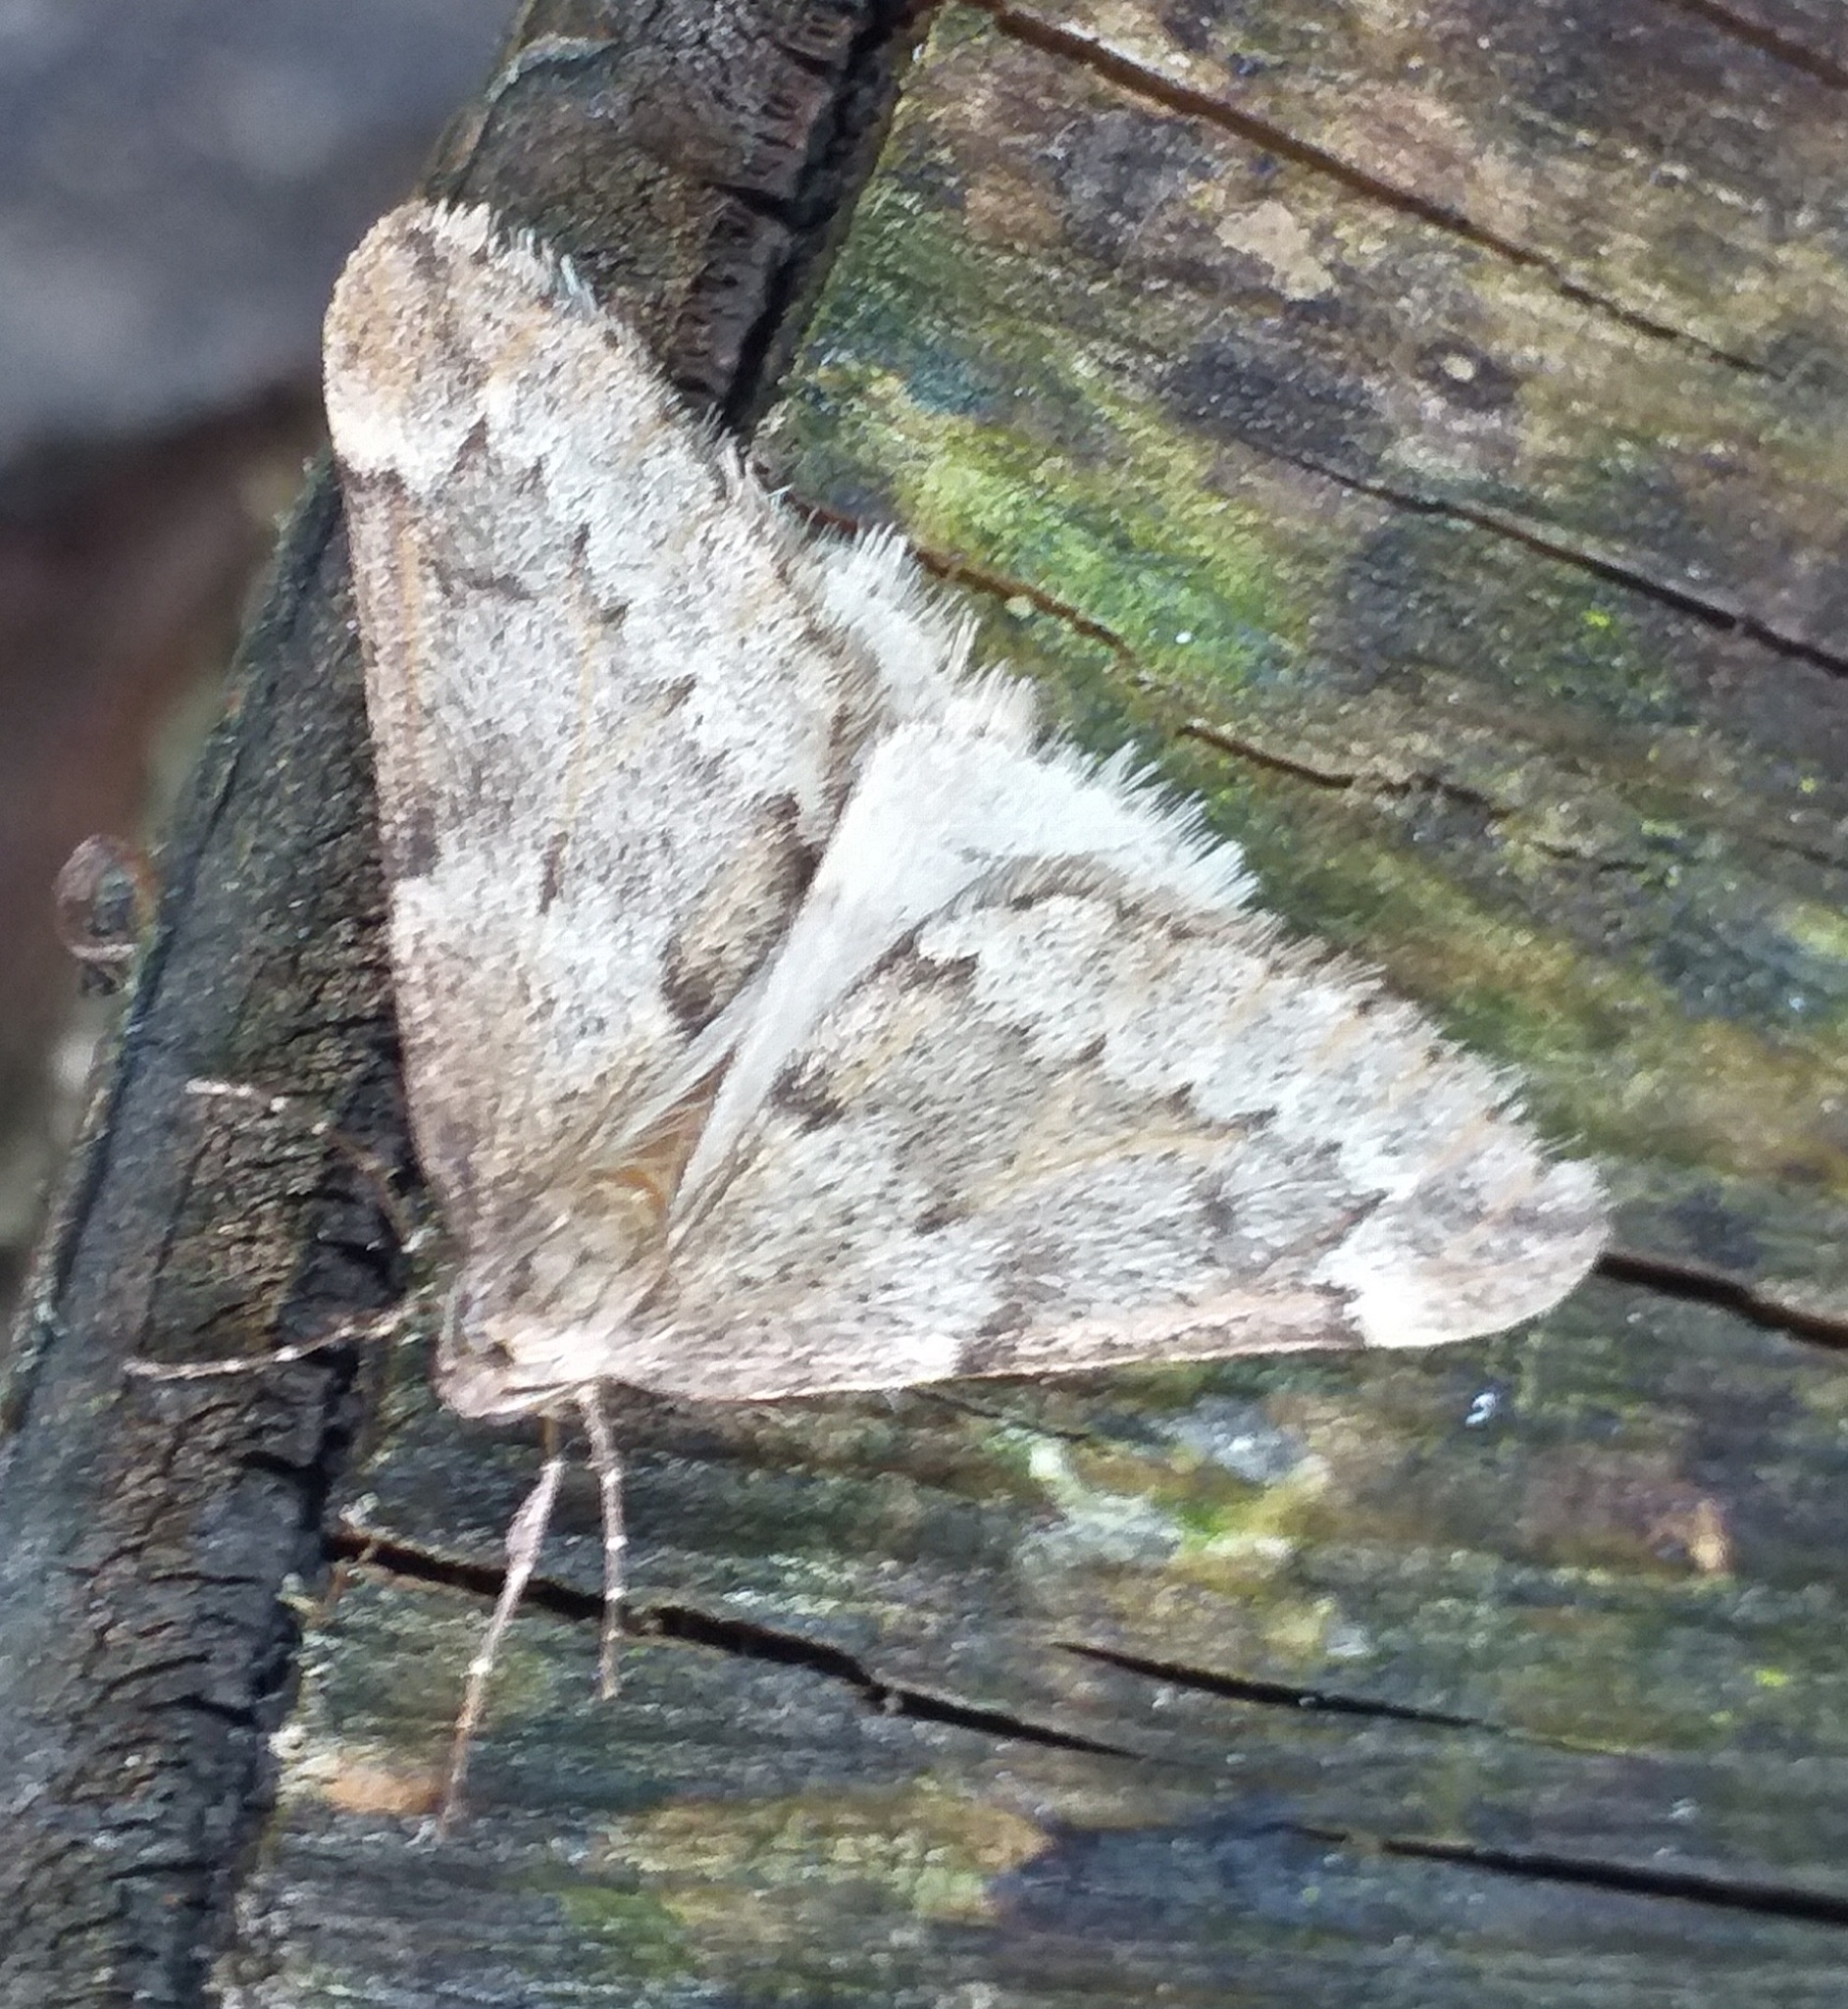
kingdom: Animalia
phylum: Arthropoda
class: Insecta
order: Lepidoptera
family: Geometridae
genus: Alsophila
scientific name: Alsophila aescularia
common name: March moth
